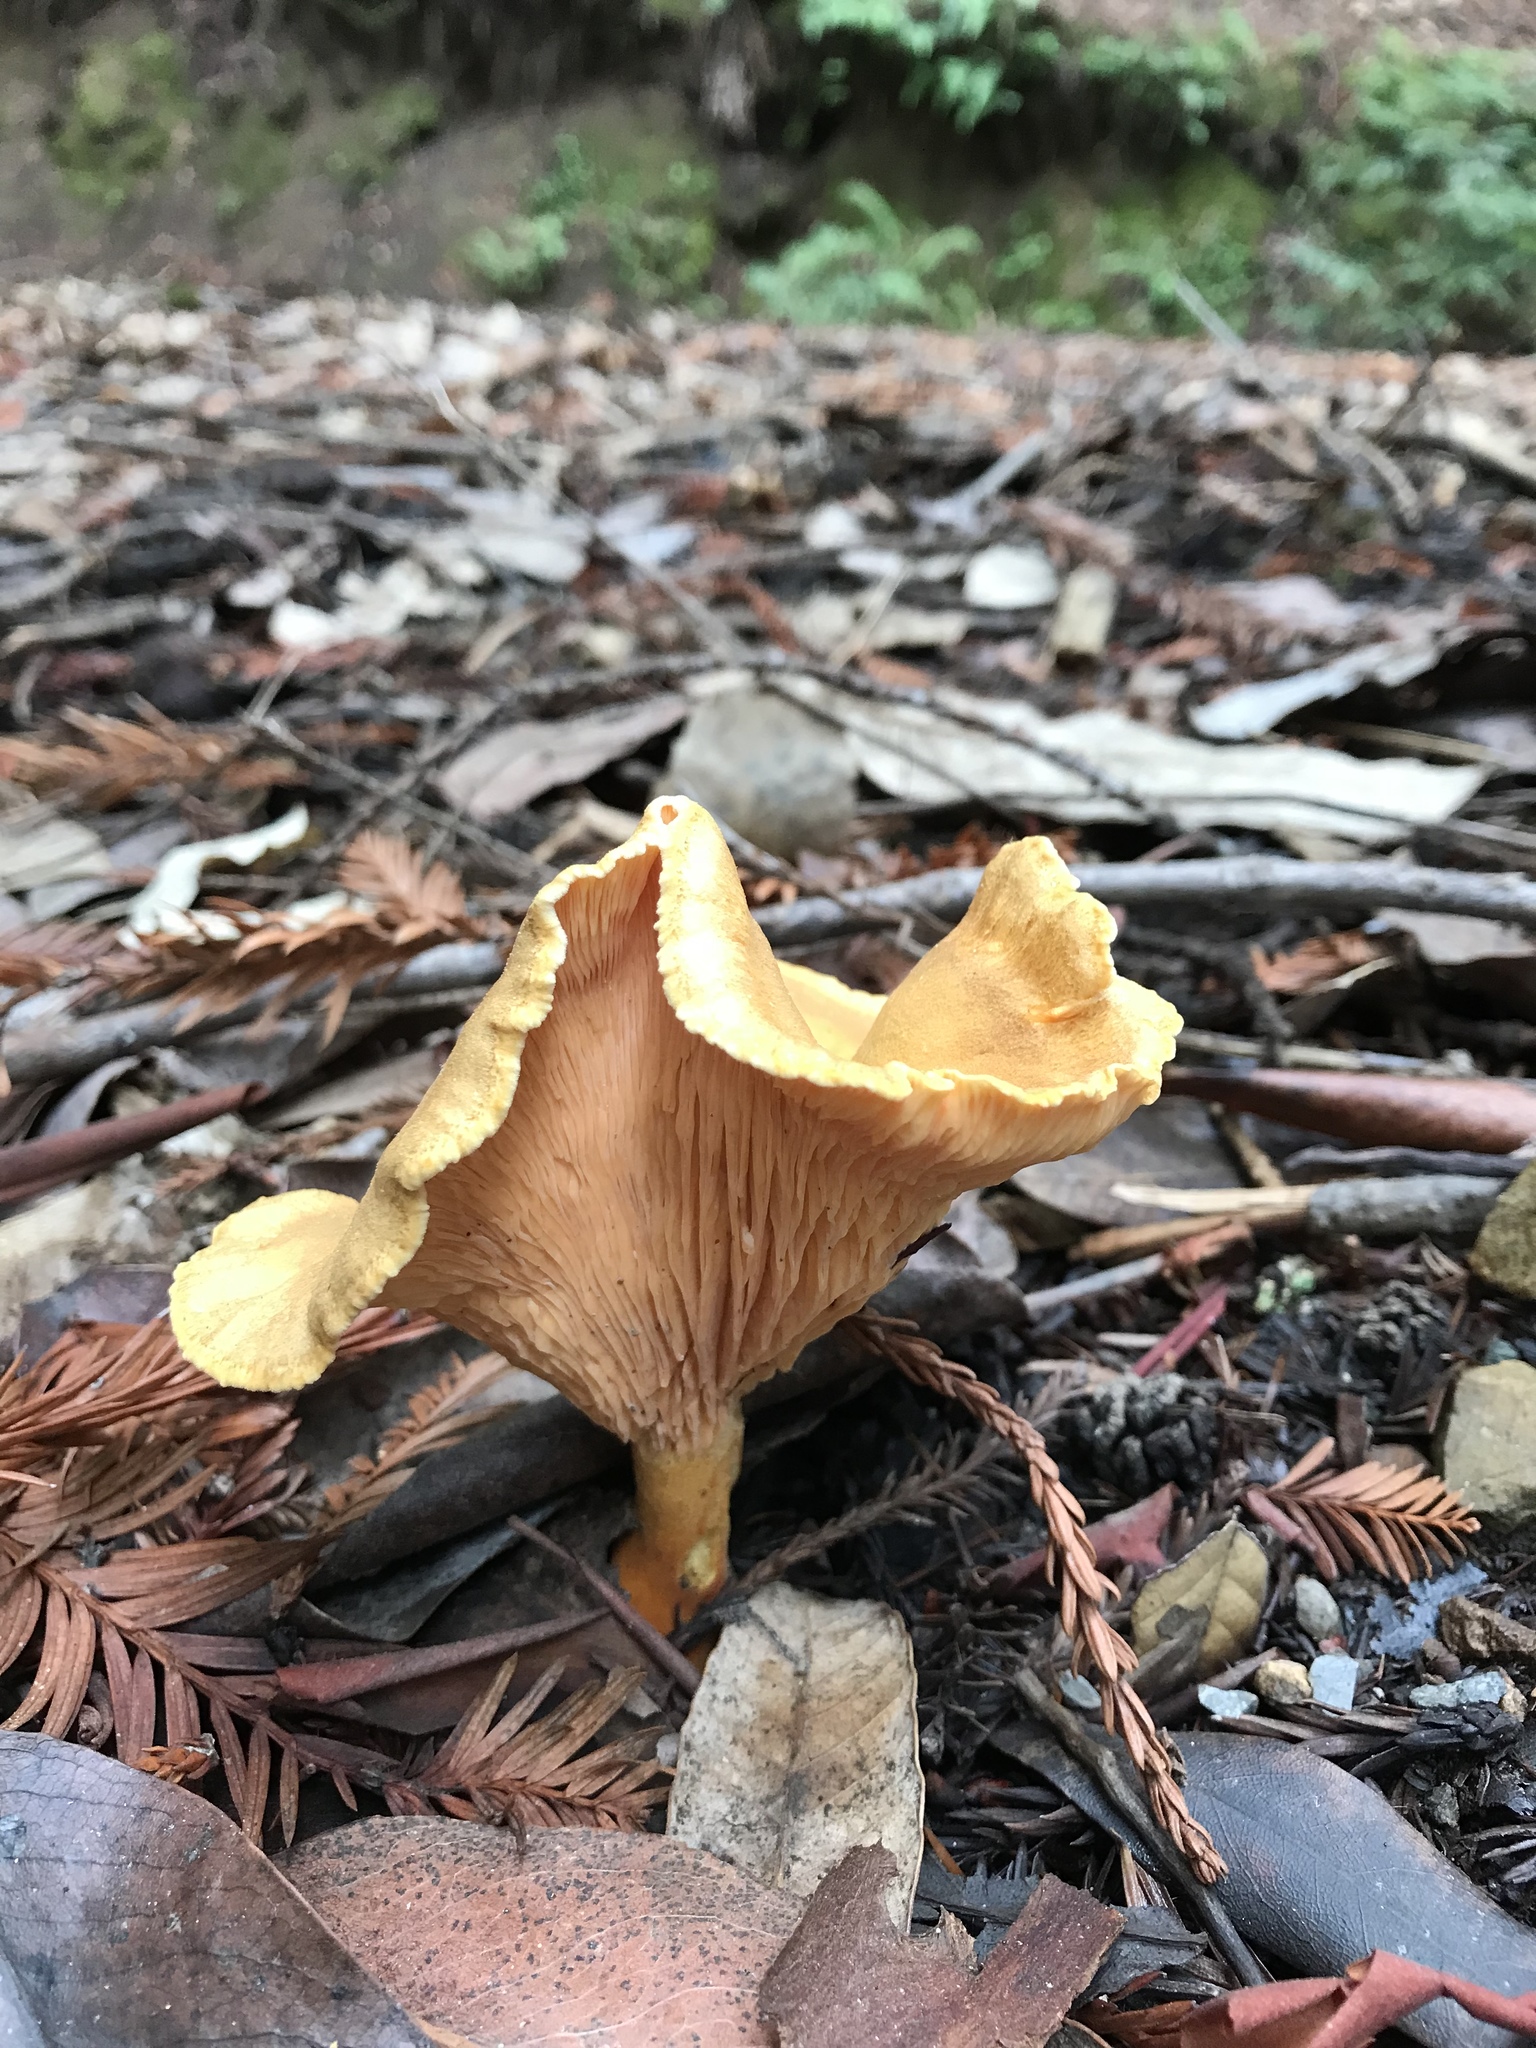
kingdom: Fungi
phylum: Basidiomycota
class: Agaricomycetes
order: Boletales
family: Hygrophoropsidaceae
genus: Hygrophoropsis
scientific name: Hygrophoropsis aurantiaca
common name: False chanterelle
